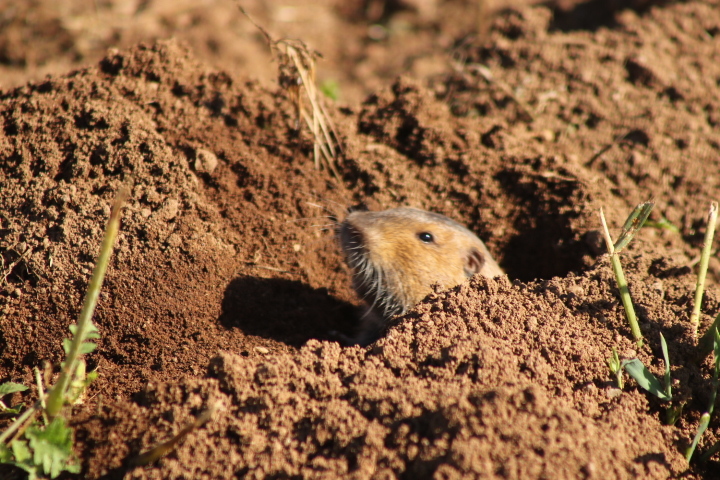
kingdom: Animalia
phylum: Chordata
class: Mammalia
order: Rodentia
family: Geomyidae
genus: Thomomys
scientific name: Thomomys bottae
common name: Botta's pocket gopher
